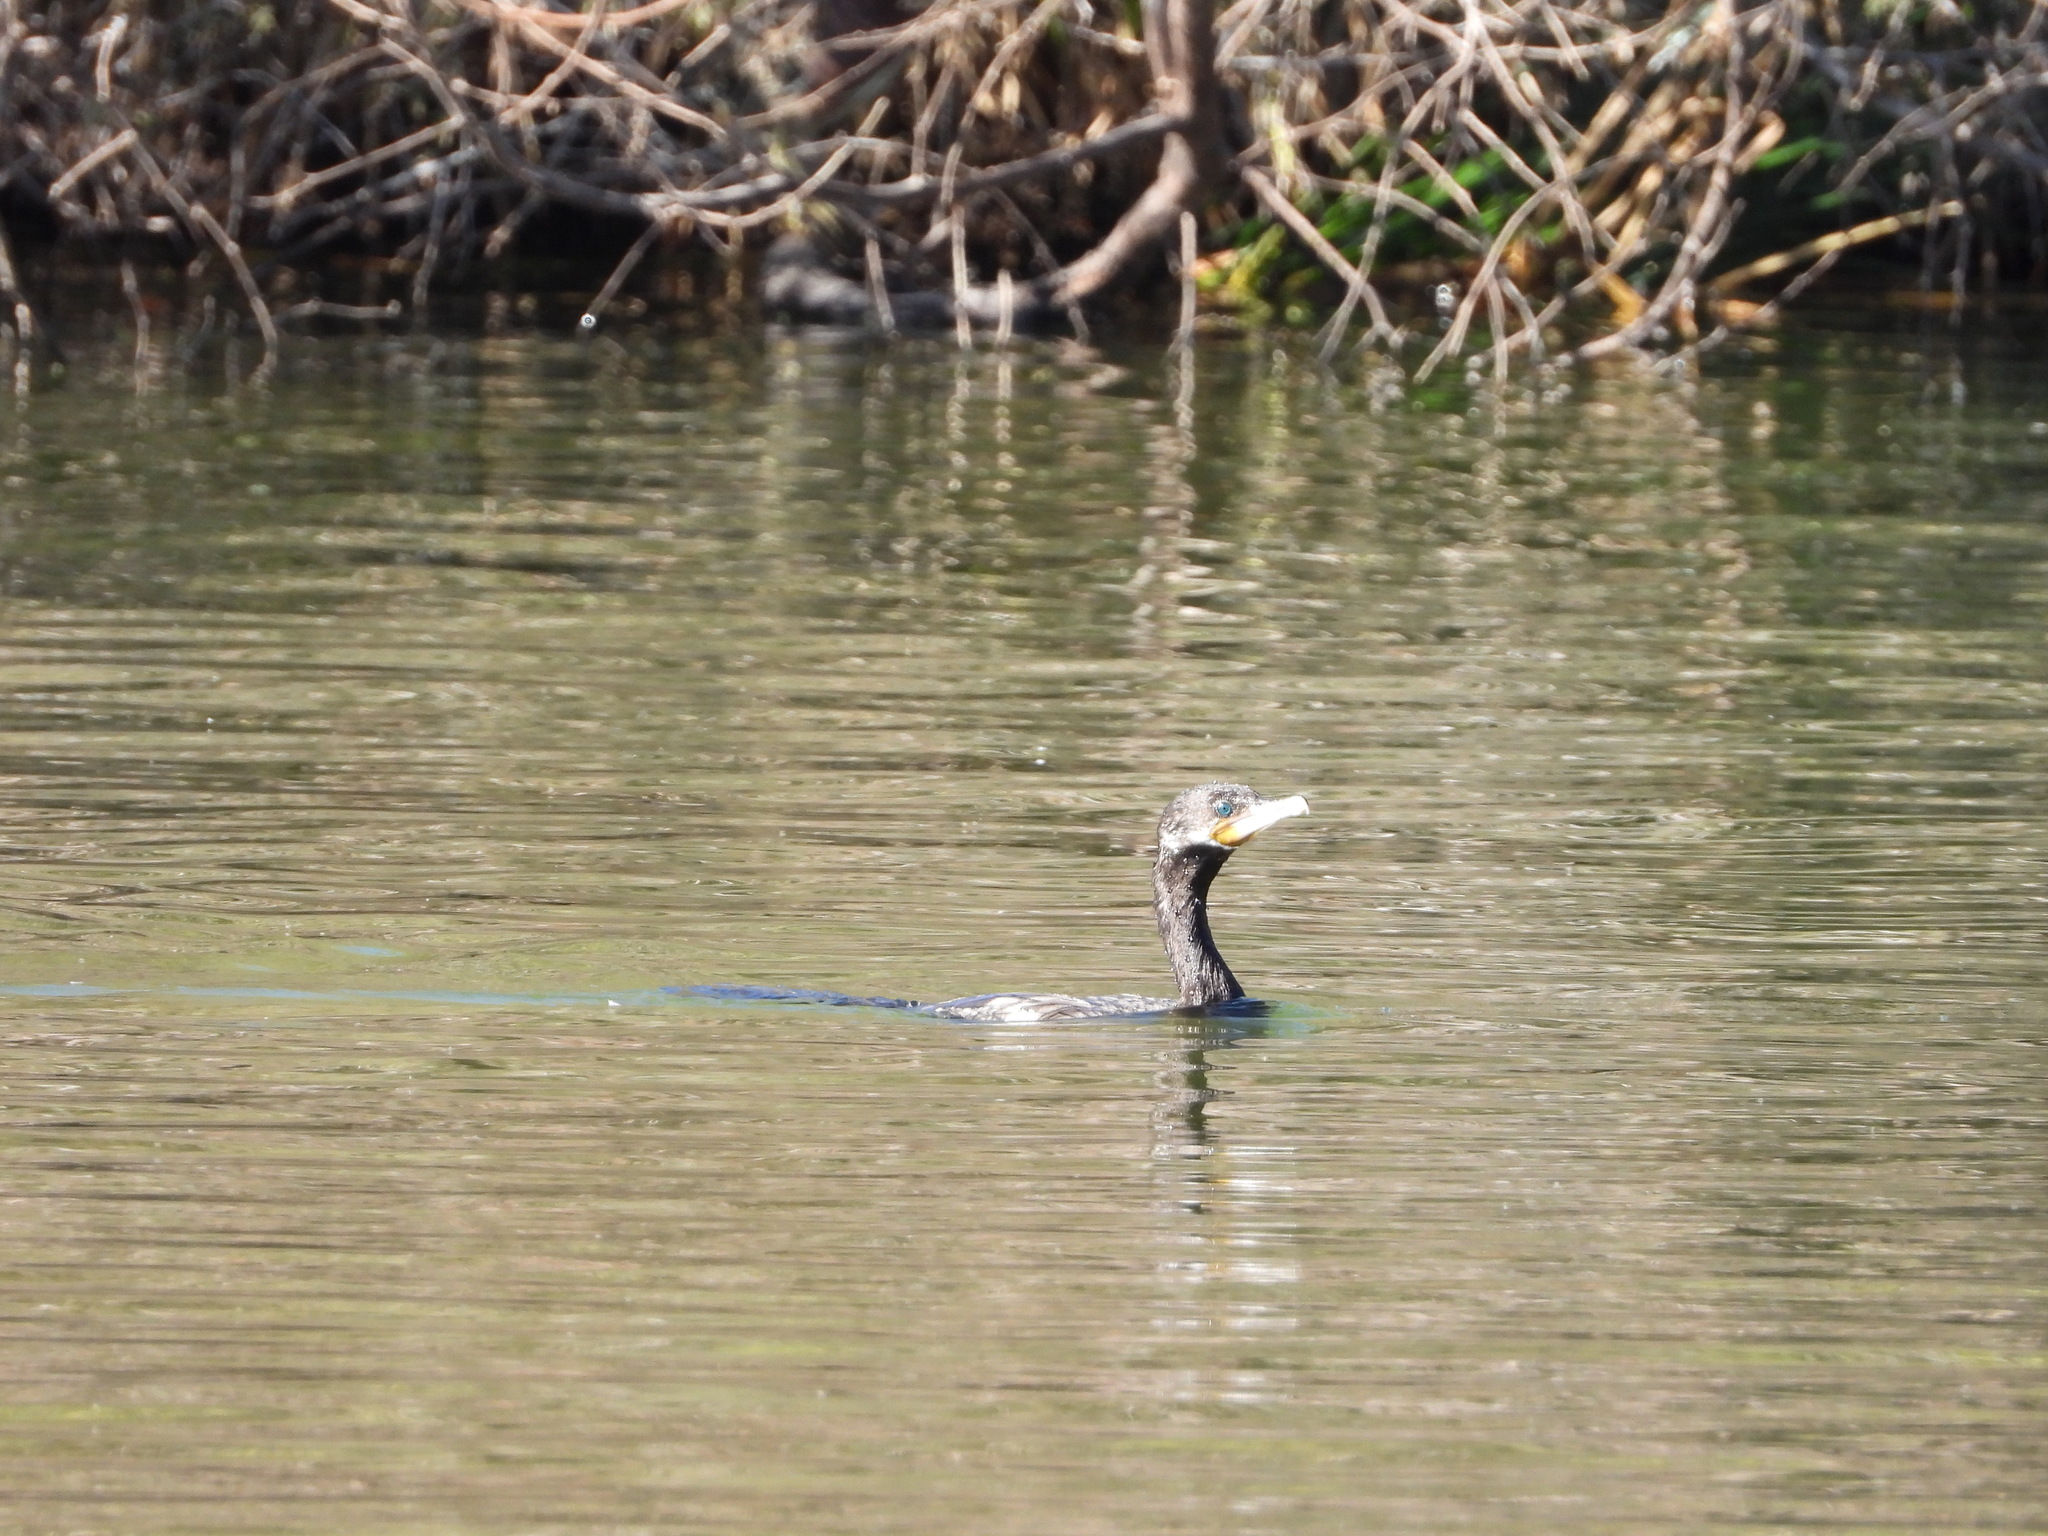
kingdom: Animalia
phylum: Chordata
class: Aves
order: Suliformes
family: Phalacrocoracidae
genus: Phalacrocorax
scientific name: Phalacrocorax brasilianus
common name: Neotropic cormorant
